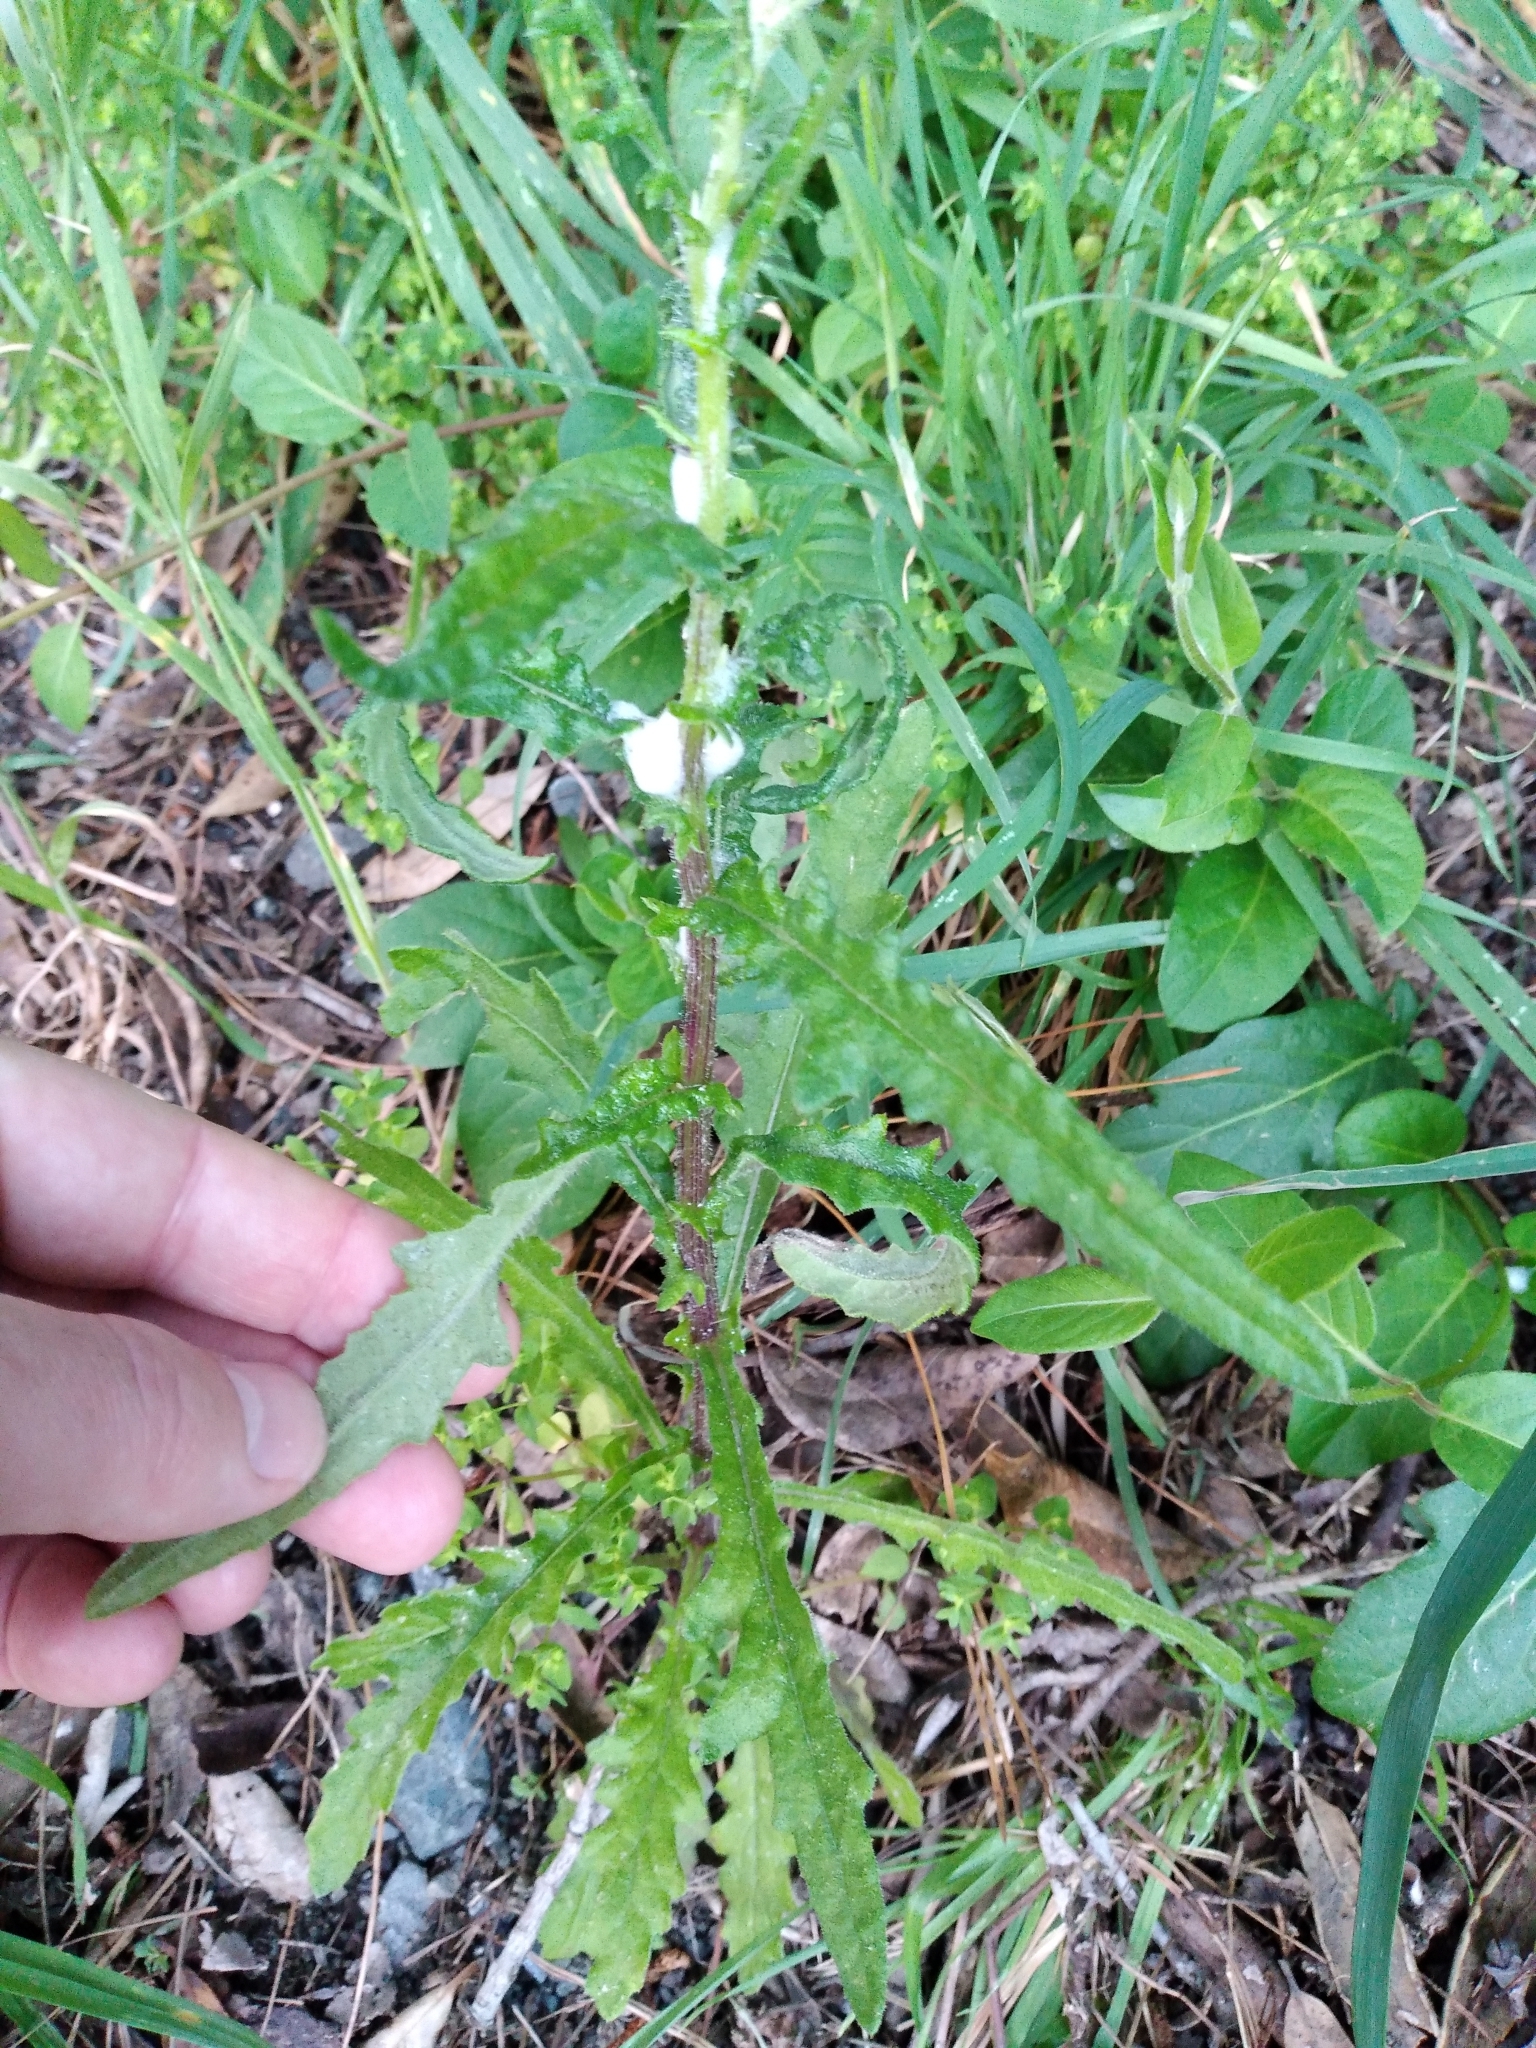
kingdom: Plantae
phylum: Tracheophyta
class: Magnoliopsida
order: Asterales
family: Asteraceae
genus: Senecio
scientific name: Senecio hispidulus
